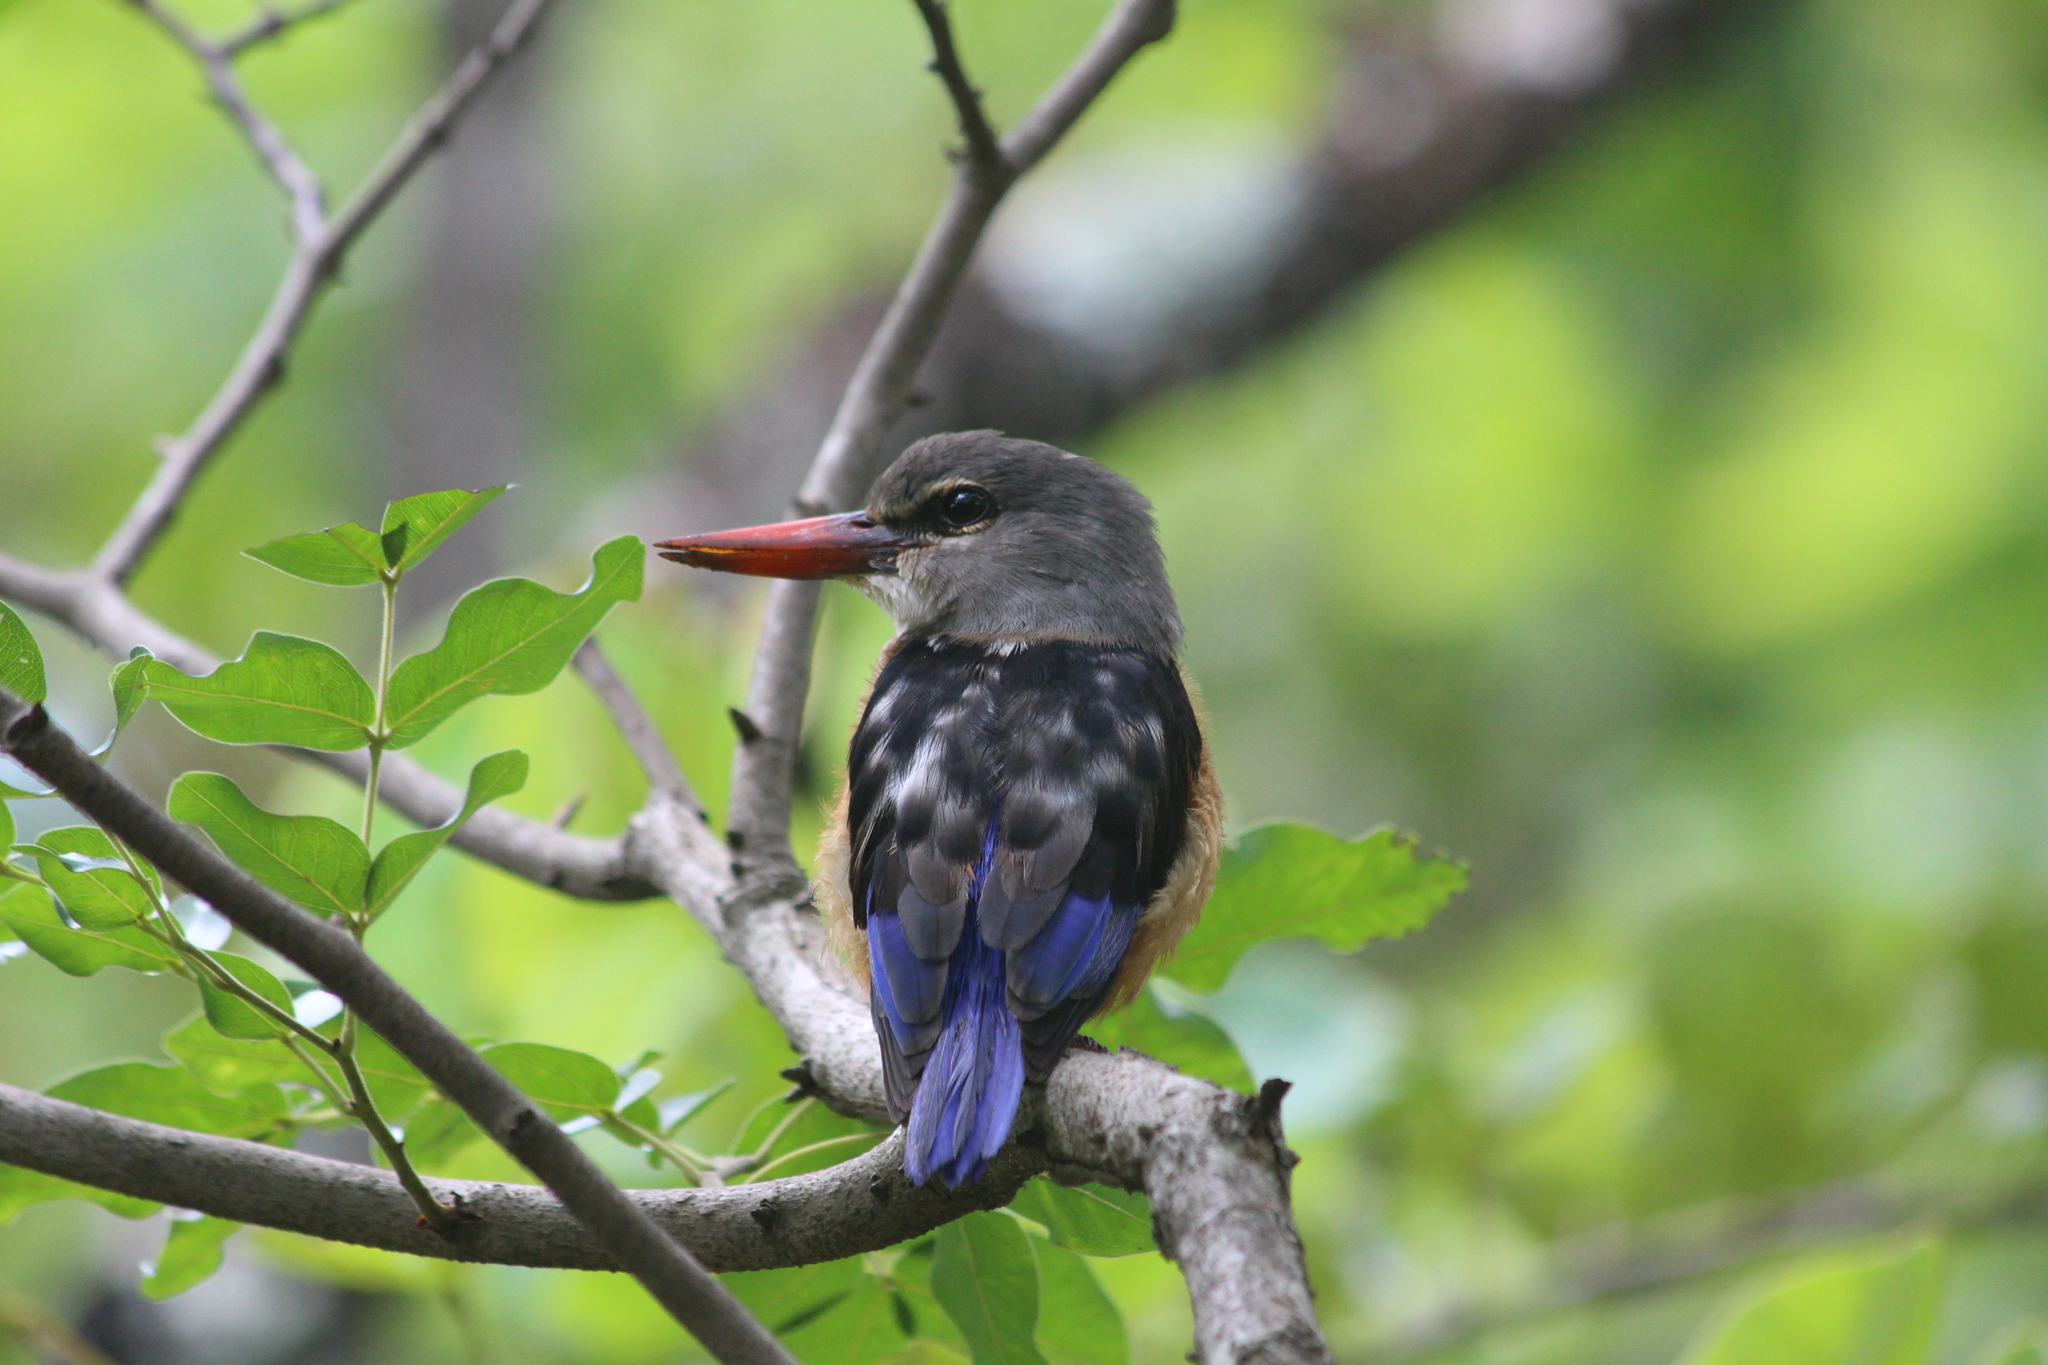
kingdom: Animalia
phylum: Chordata
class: Aves
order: Coraciiformes
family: Alcedinidae
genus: Halcyon
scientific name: Halcyon leucocephala
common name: Grey-headed kingfisher
